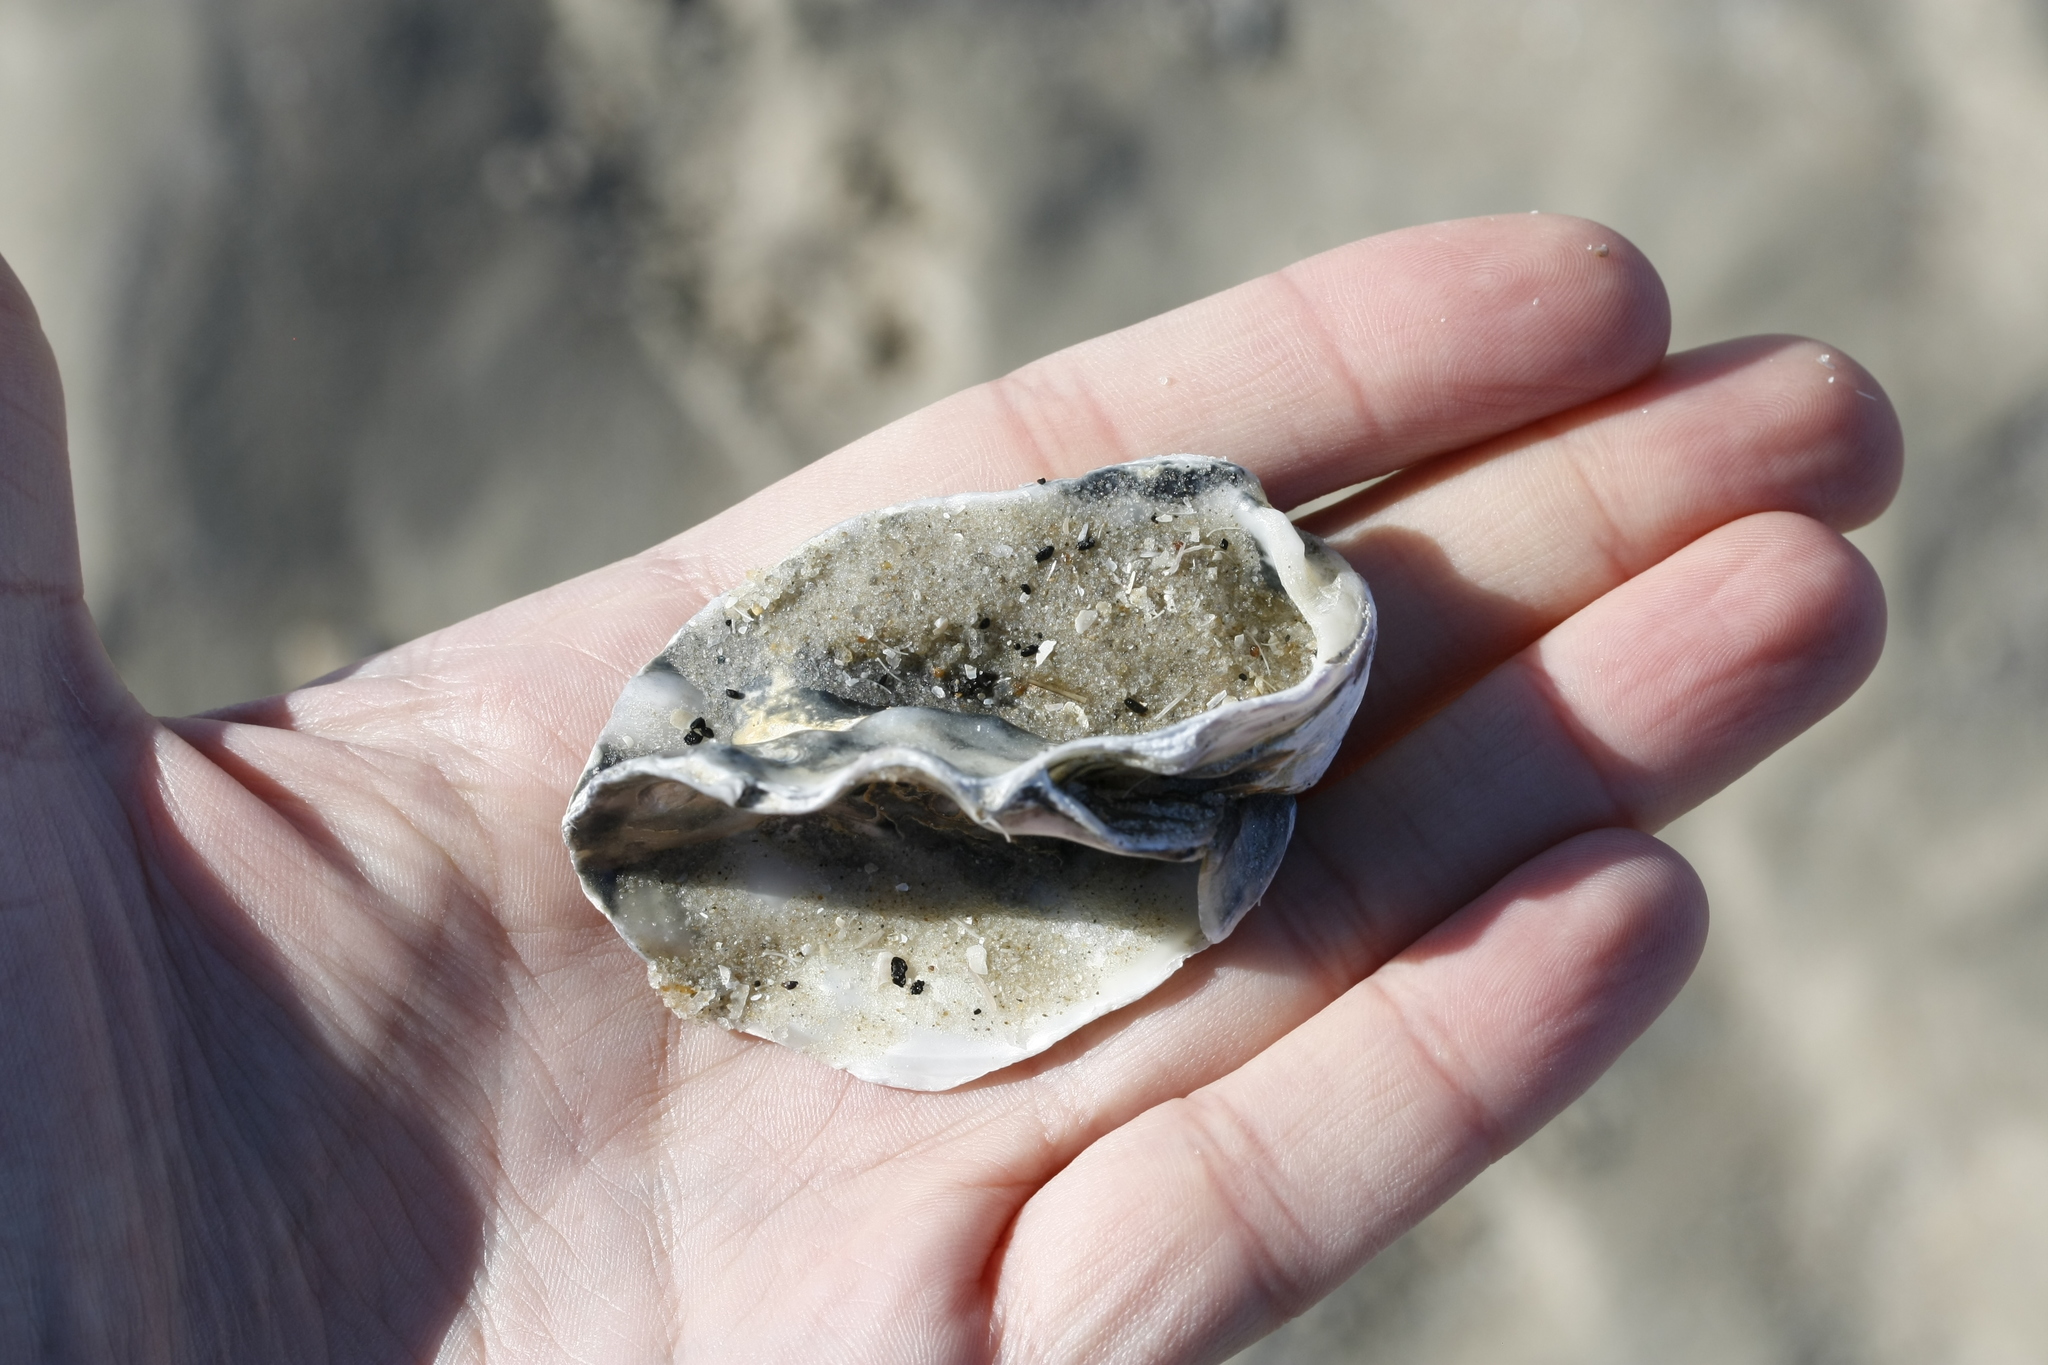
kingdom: Animalia
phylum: Mollusca
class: Bivalvia
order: Ostreida
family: Ostreidae
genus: Magallana
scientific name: Magallana gigas
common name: Pacific oyster
